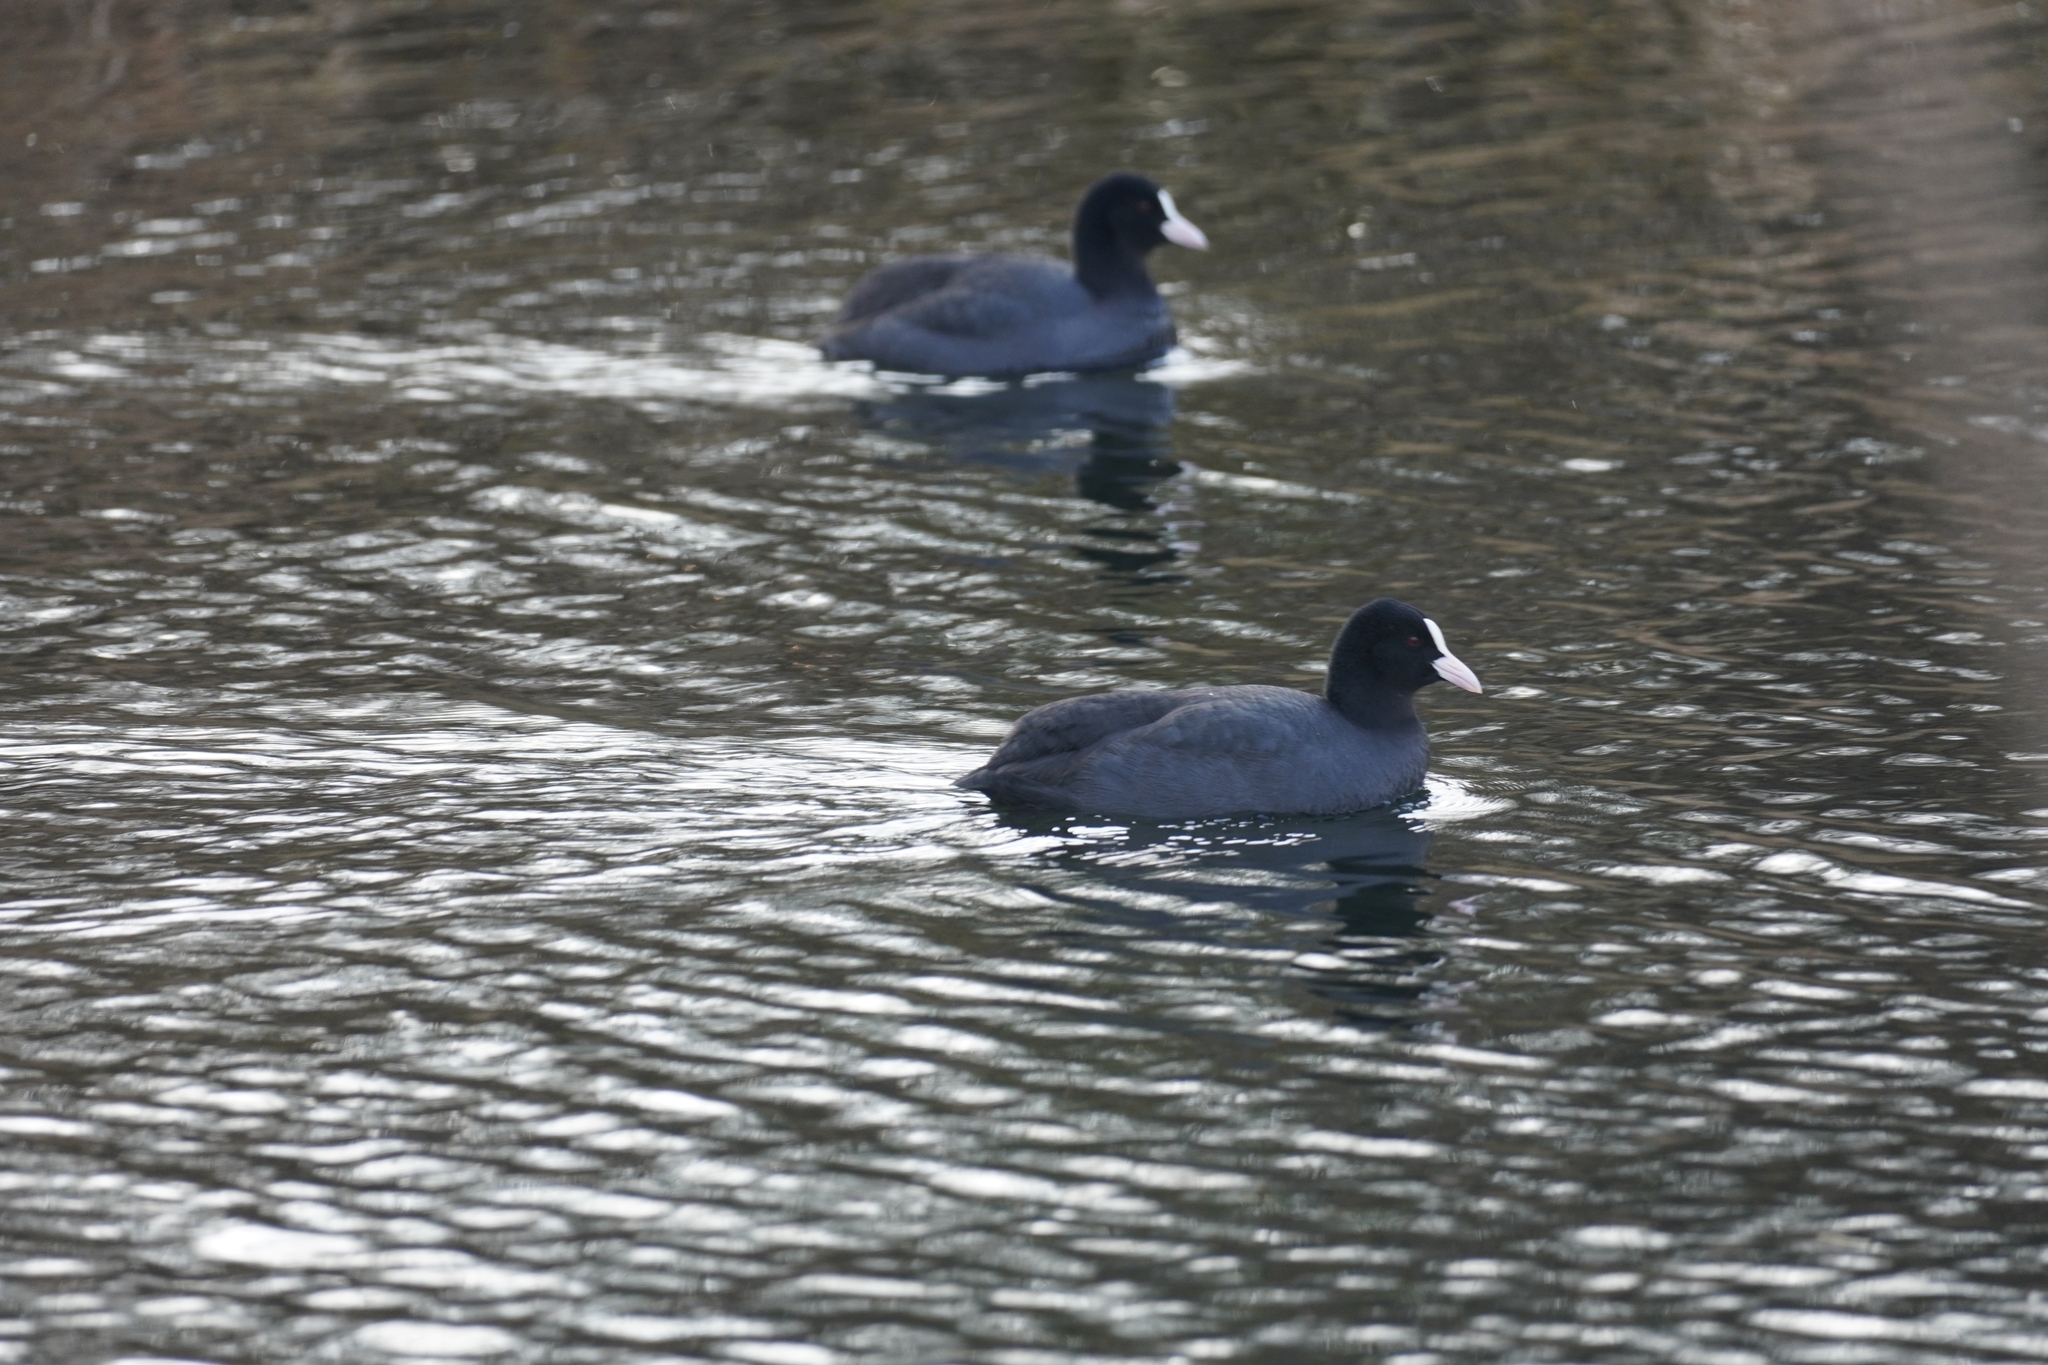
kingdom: Animalia
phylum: Chordata
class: Aves
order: Gruiformes
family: Rallidae
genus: Fulica
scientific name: Fulica atra
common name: Eurasian coot
